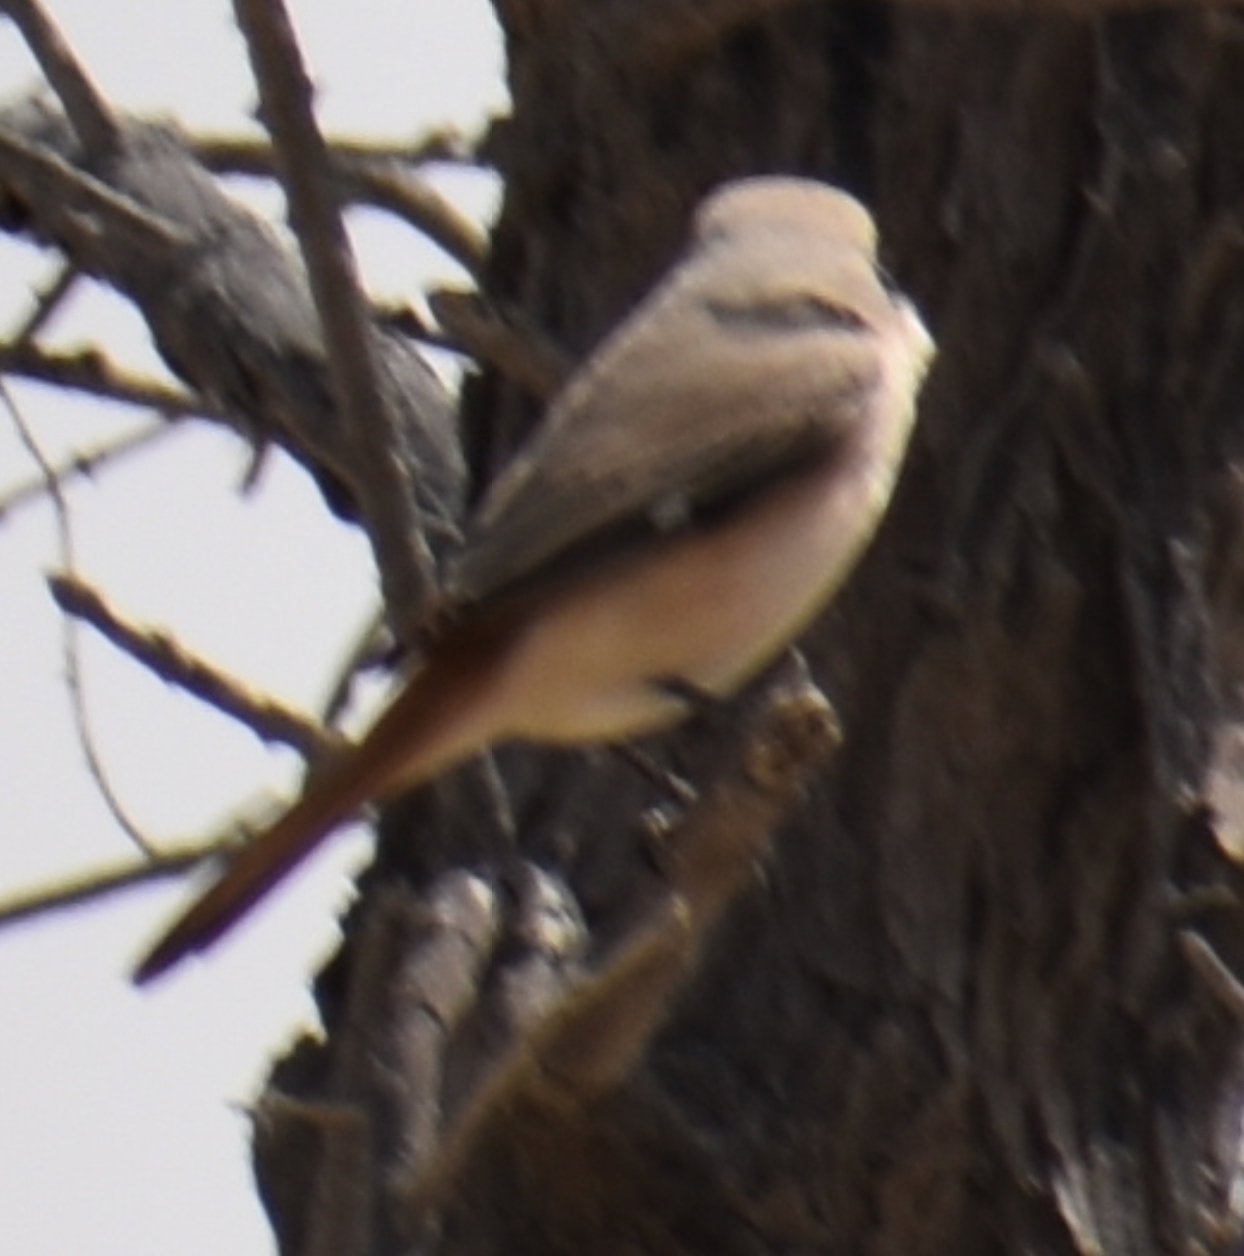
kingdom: Animalia
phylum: Chordata
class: Aves
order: Passeriformes
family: Laniidae
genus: Lanius
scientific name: Lanius isabellinus
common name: Isabelline shrike
